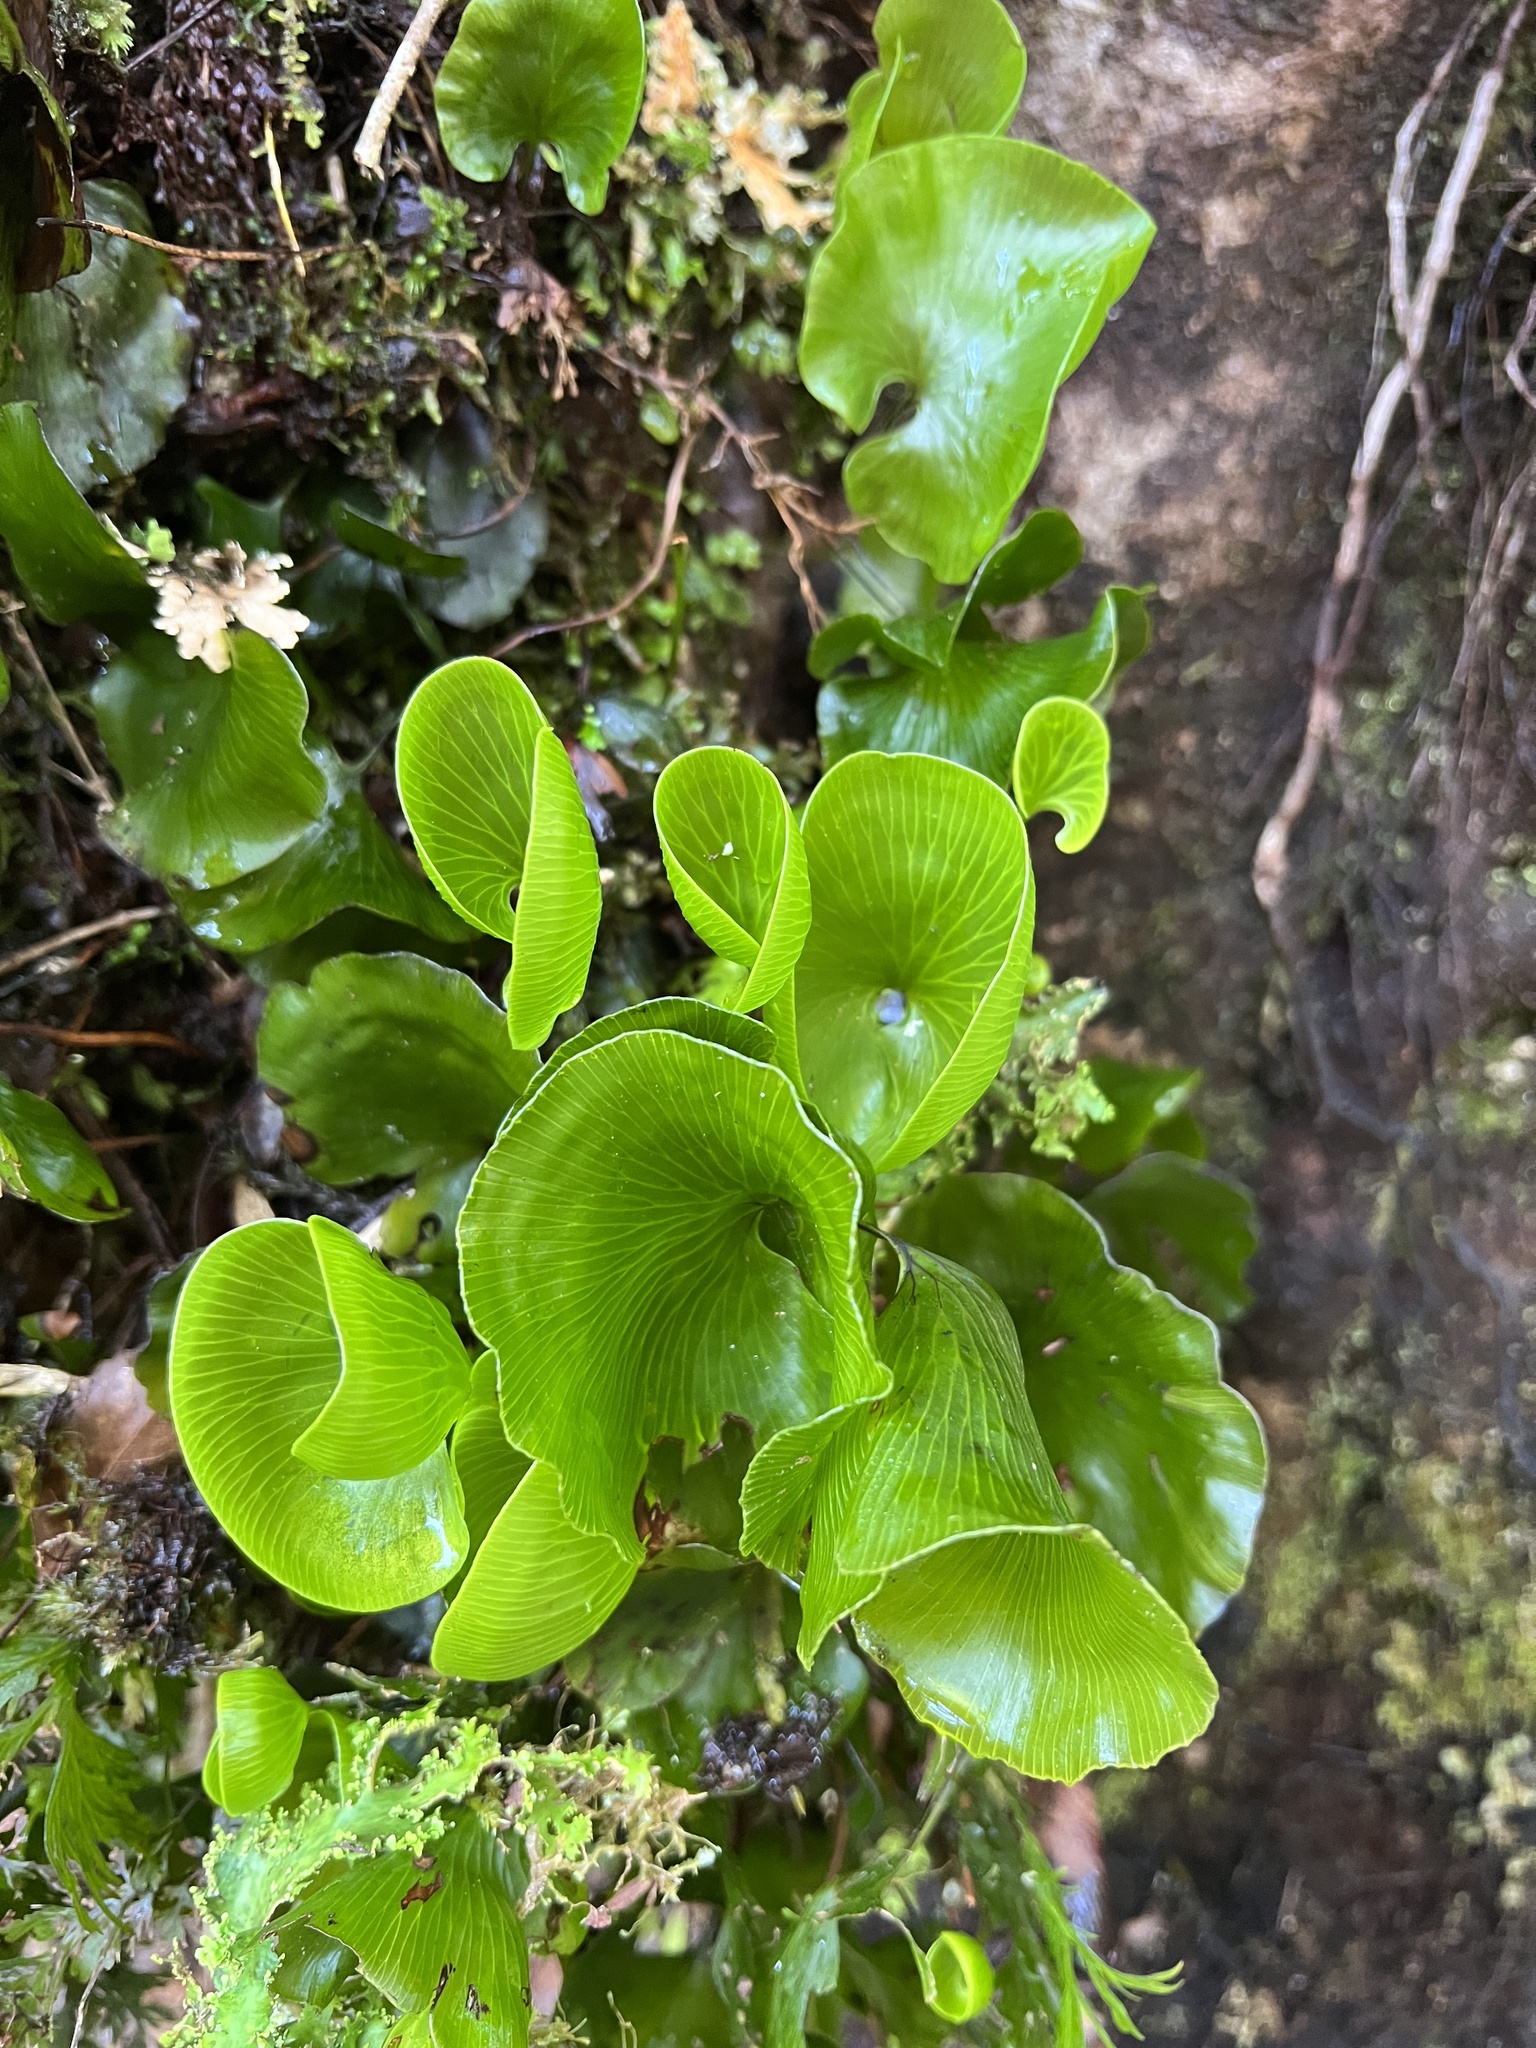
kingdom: Plantae
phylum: Tracheophyta
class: Polypodiopsida
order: Hymenophyllales
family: Hymenophyllaceae
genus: Hymenophyllum
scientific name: Hymenophyllum nephrophyllum
